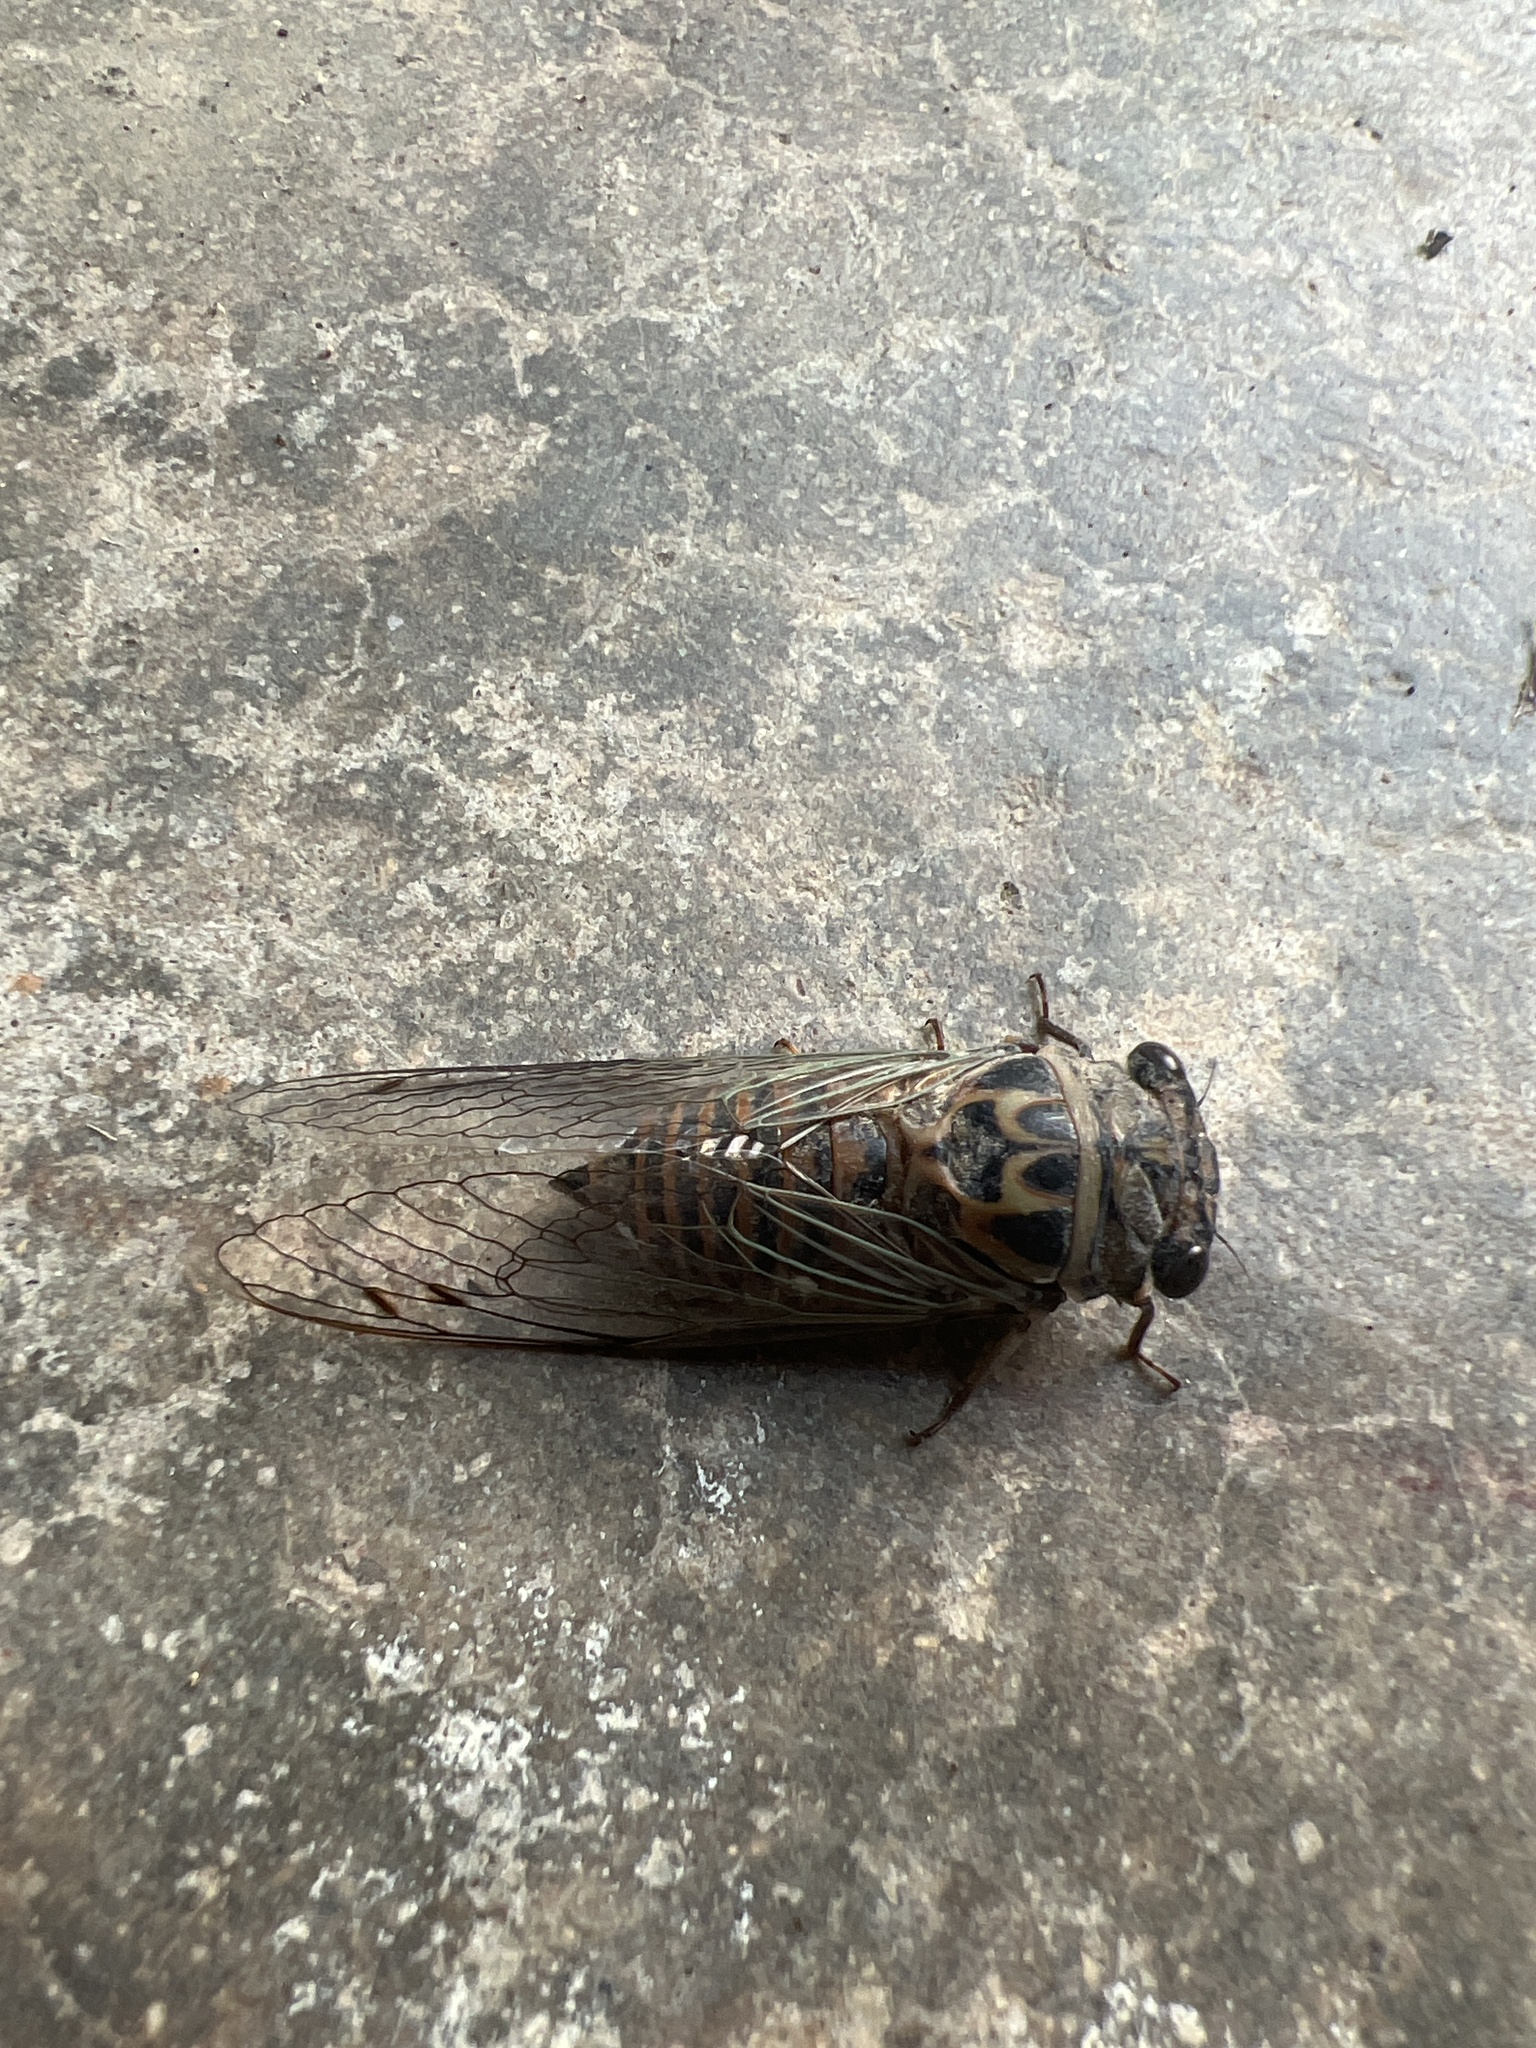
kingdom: Animalia
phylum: Arthropoda
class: Insecta
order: Hemiptera
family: Cicadidae
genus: Hadoa
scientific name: Hadoa texana
